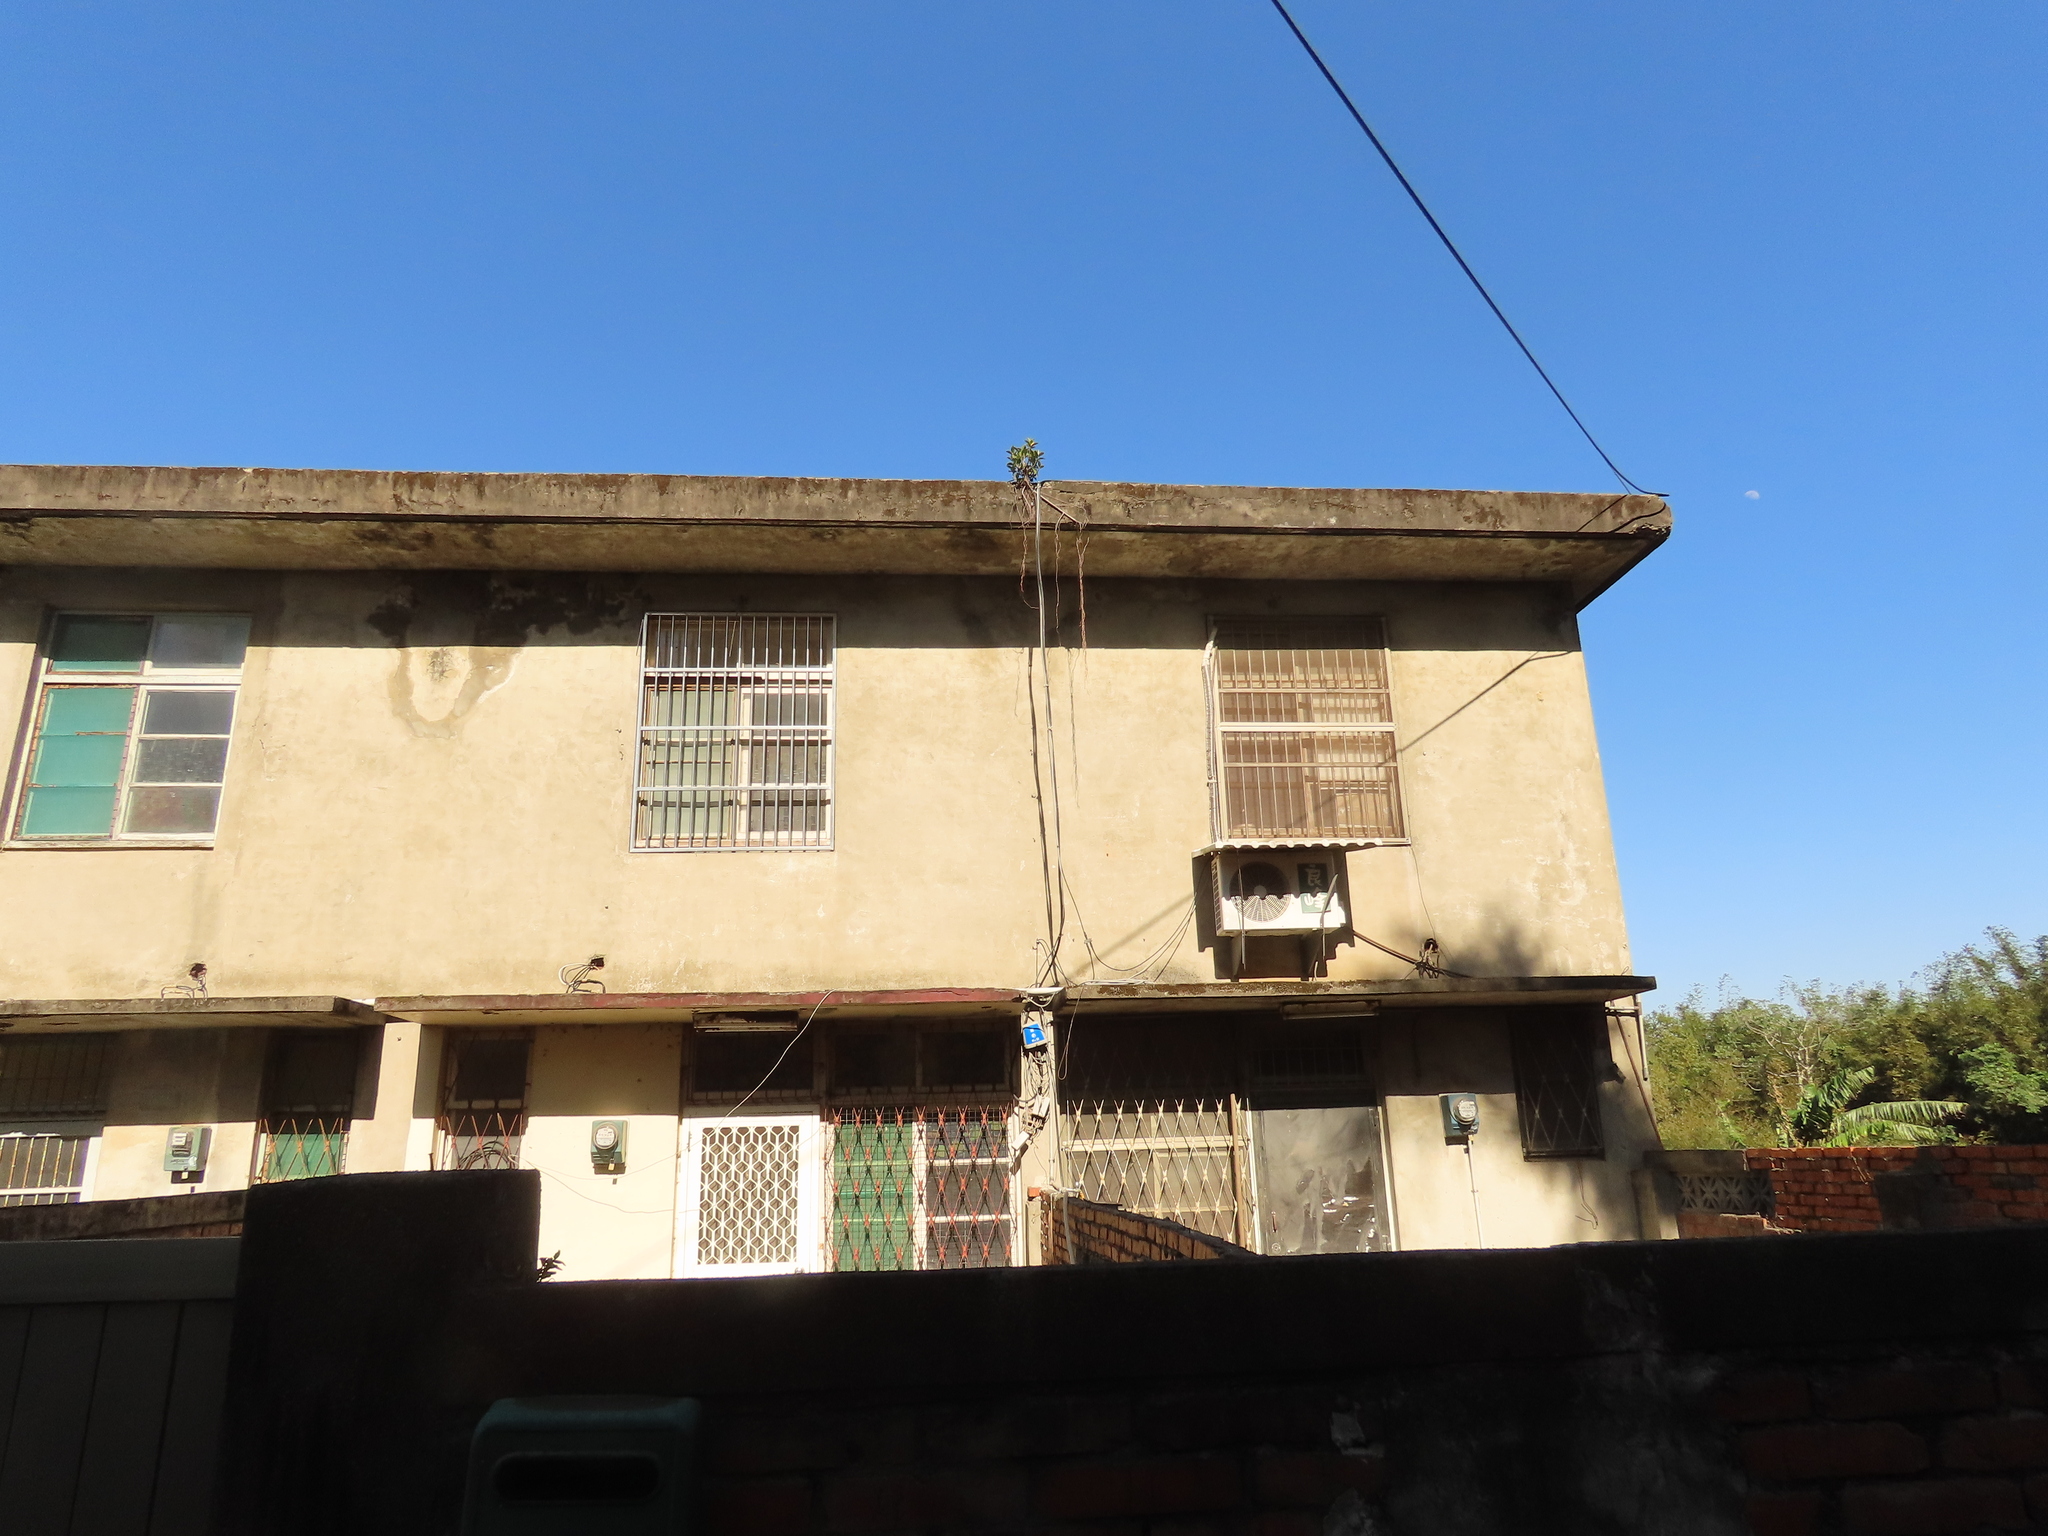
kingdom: Plantae
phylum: Tracheophyta
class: Magnoliopsida
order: Rosales
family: Moraceae
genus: Ficus
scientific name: Ficus microcarpa
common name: Chinese banyan
